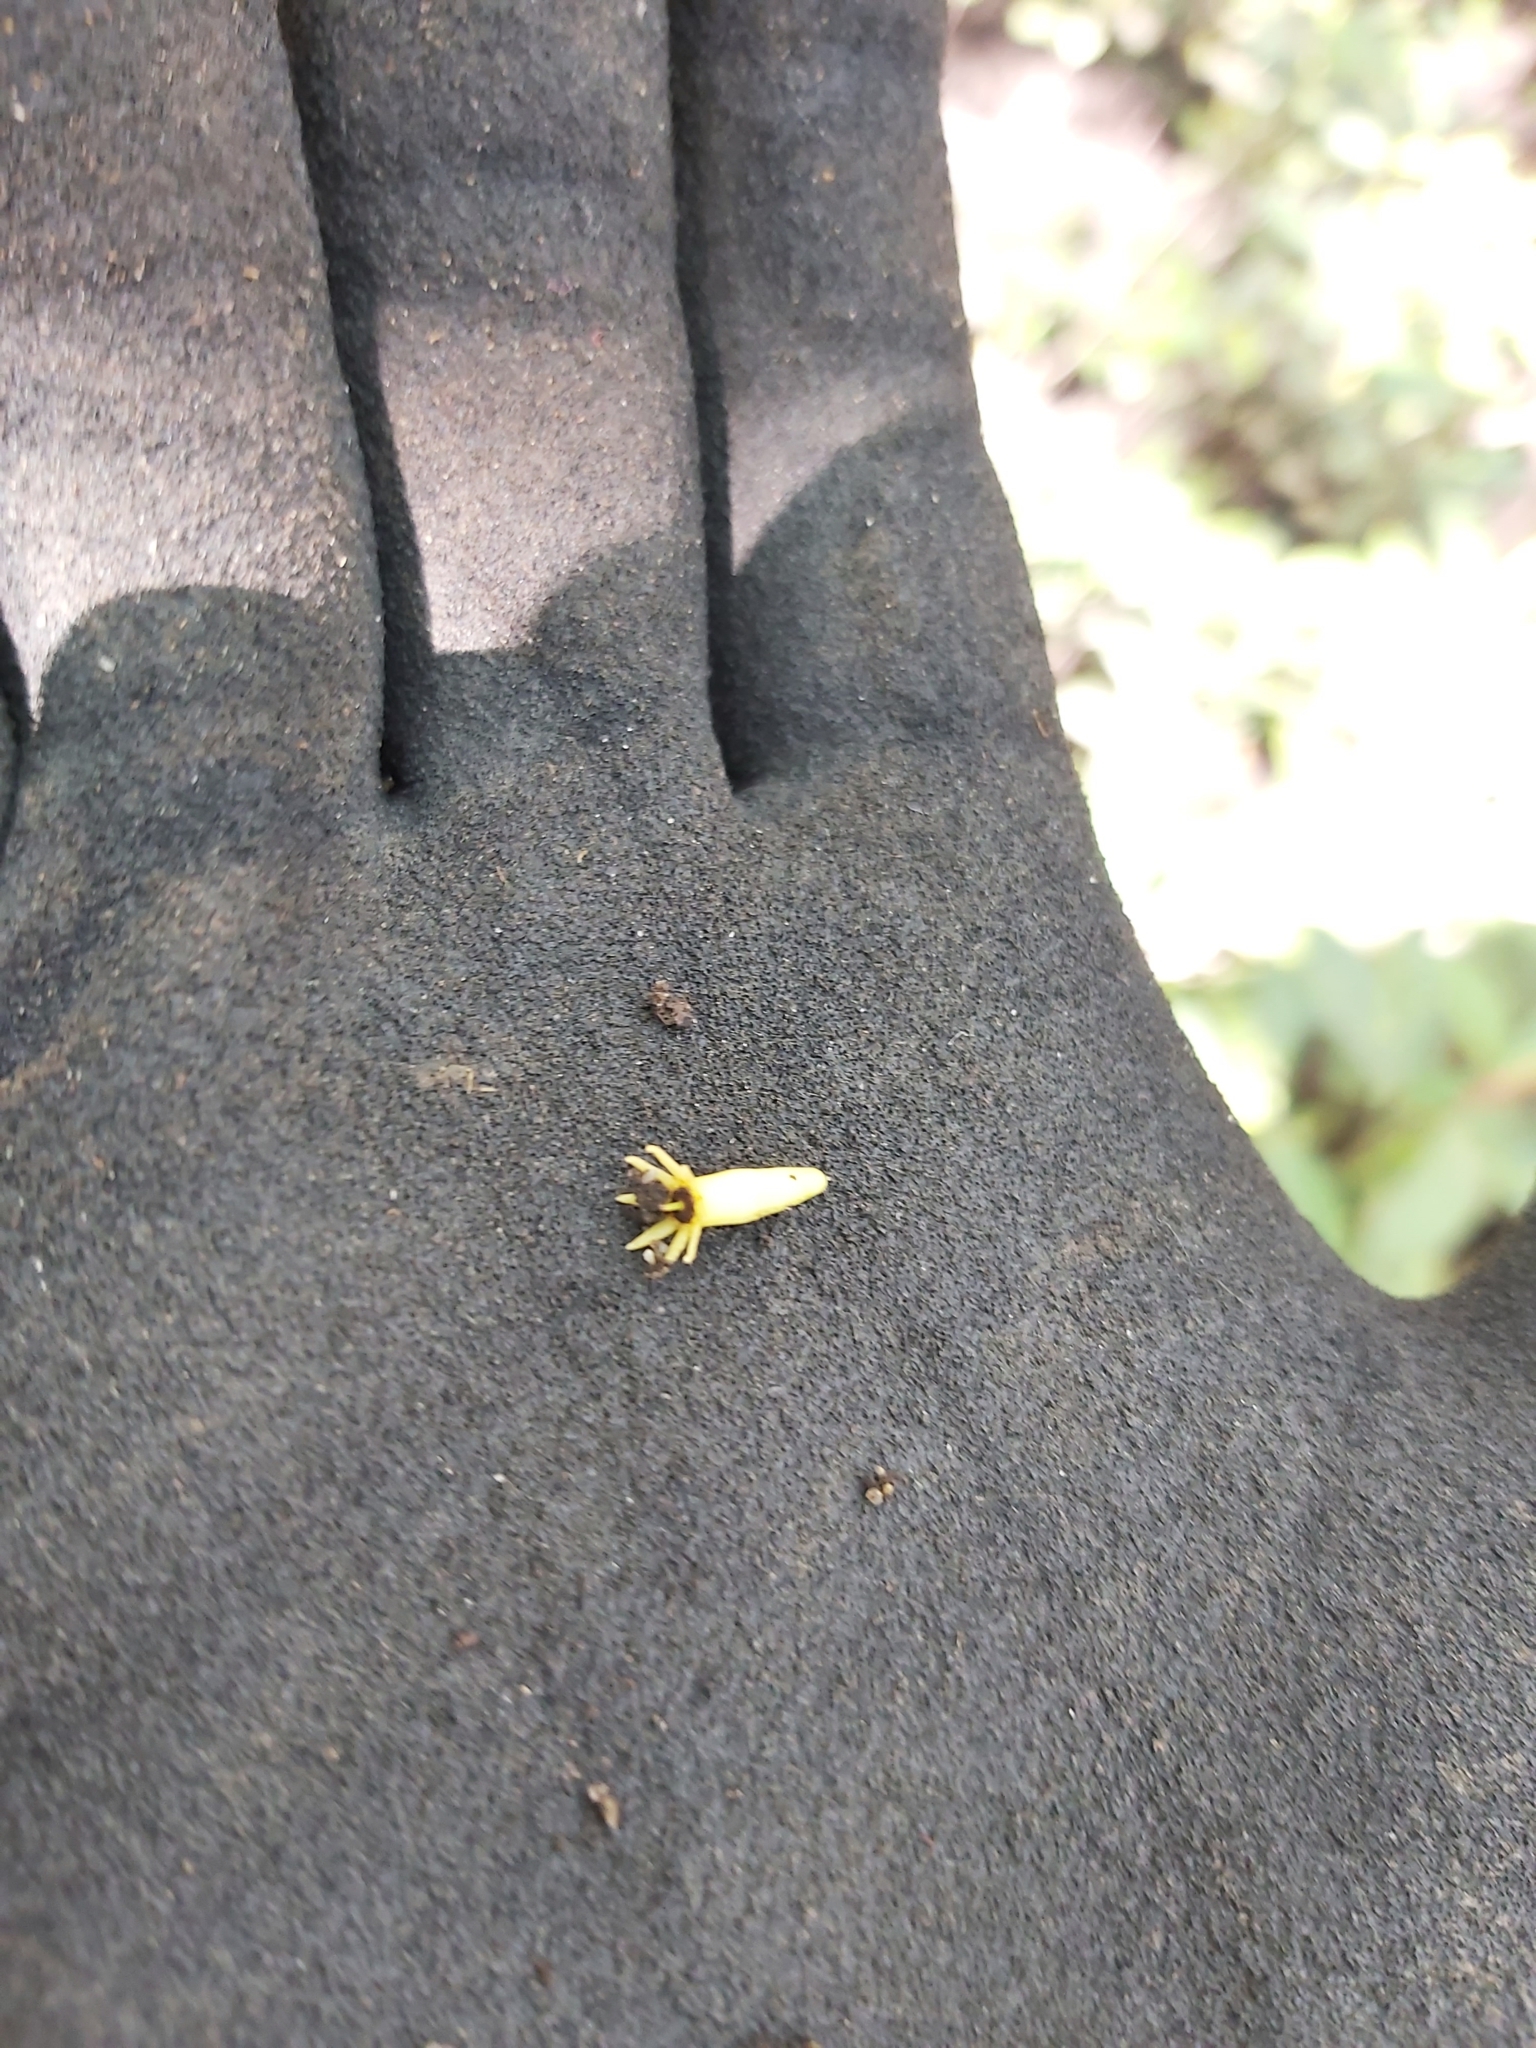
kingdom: Plantae
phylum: Tracheophyta
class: Magnoliopsida
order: Malpighiales
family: Rhizophoraceae
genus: Bruguiera
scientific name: Bruguiera parviflora
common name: Smallflower bruguiera
